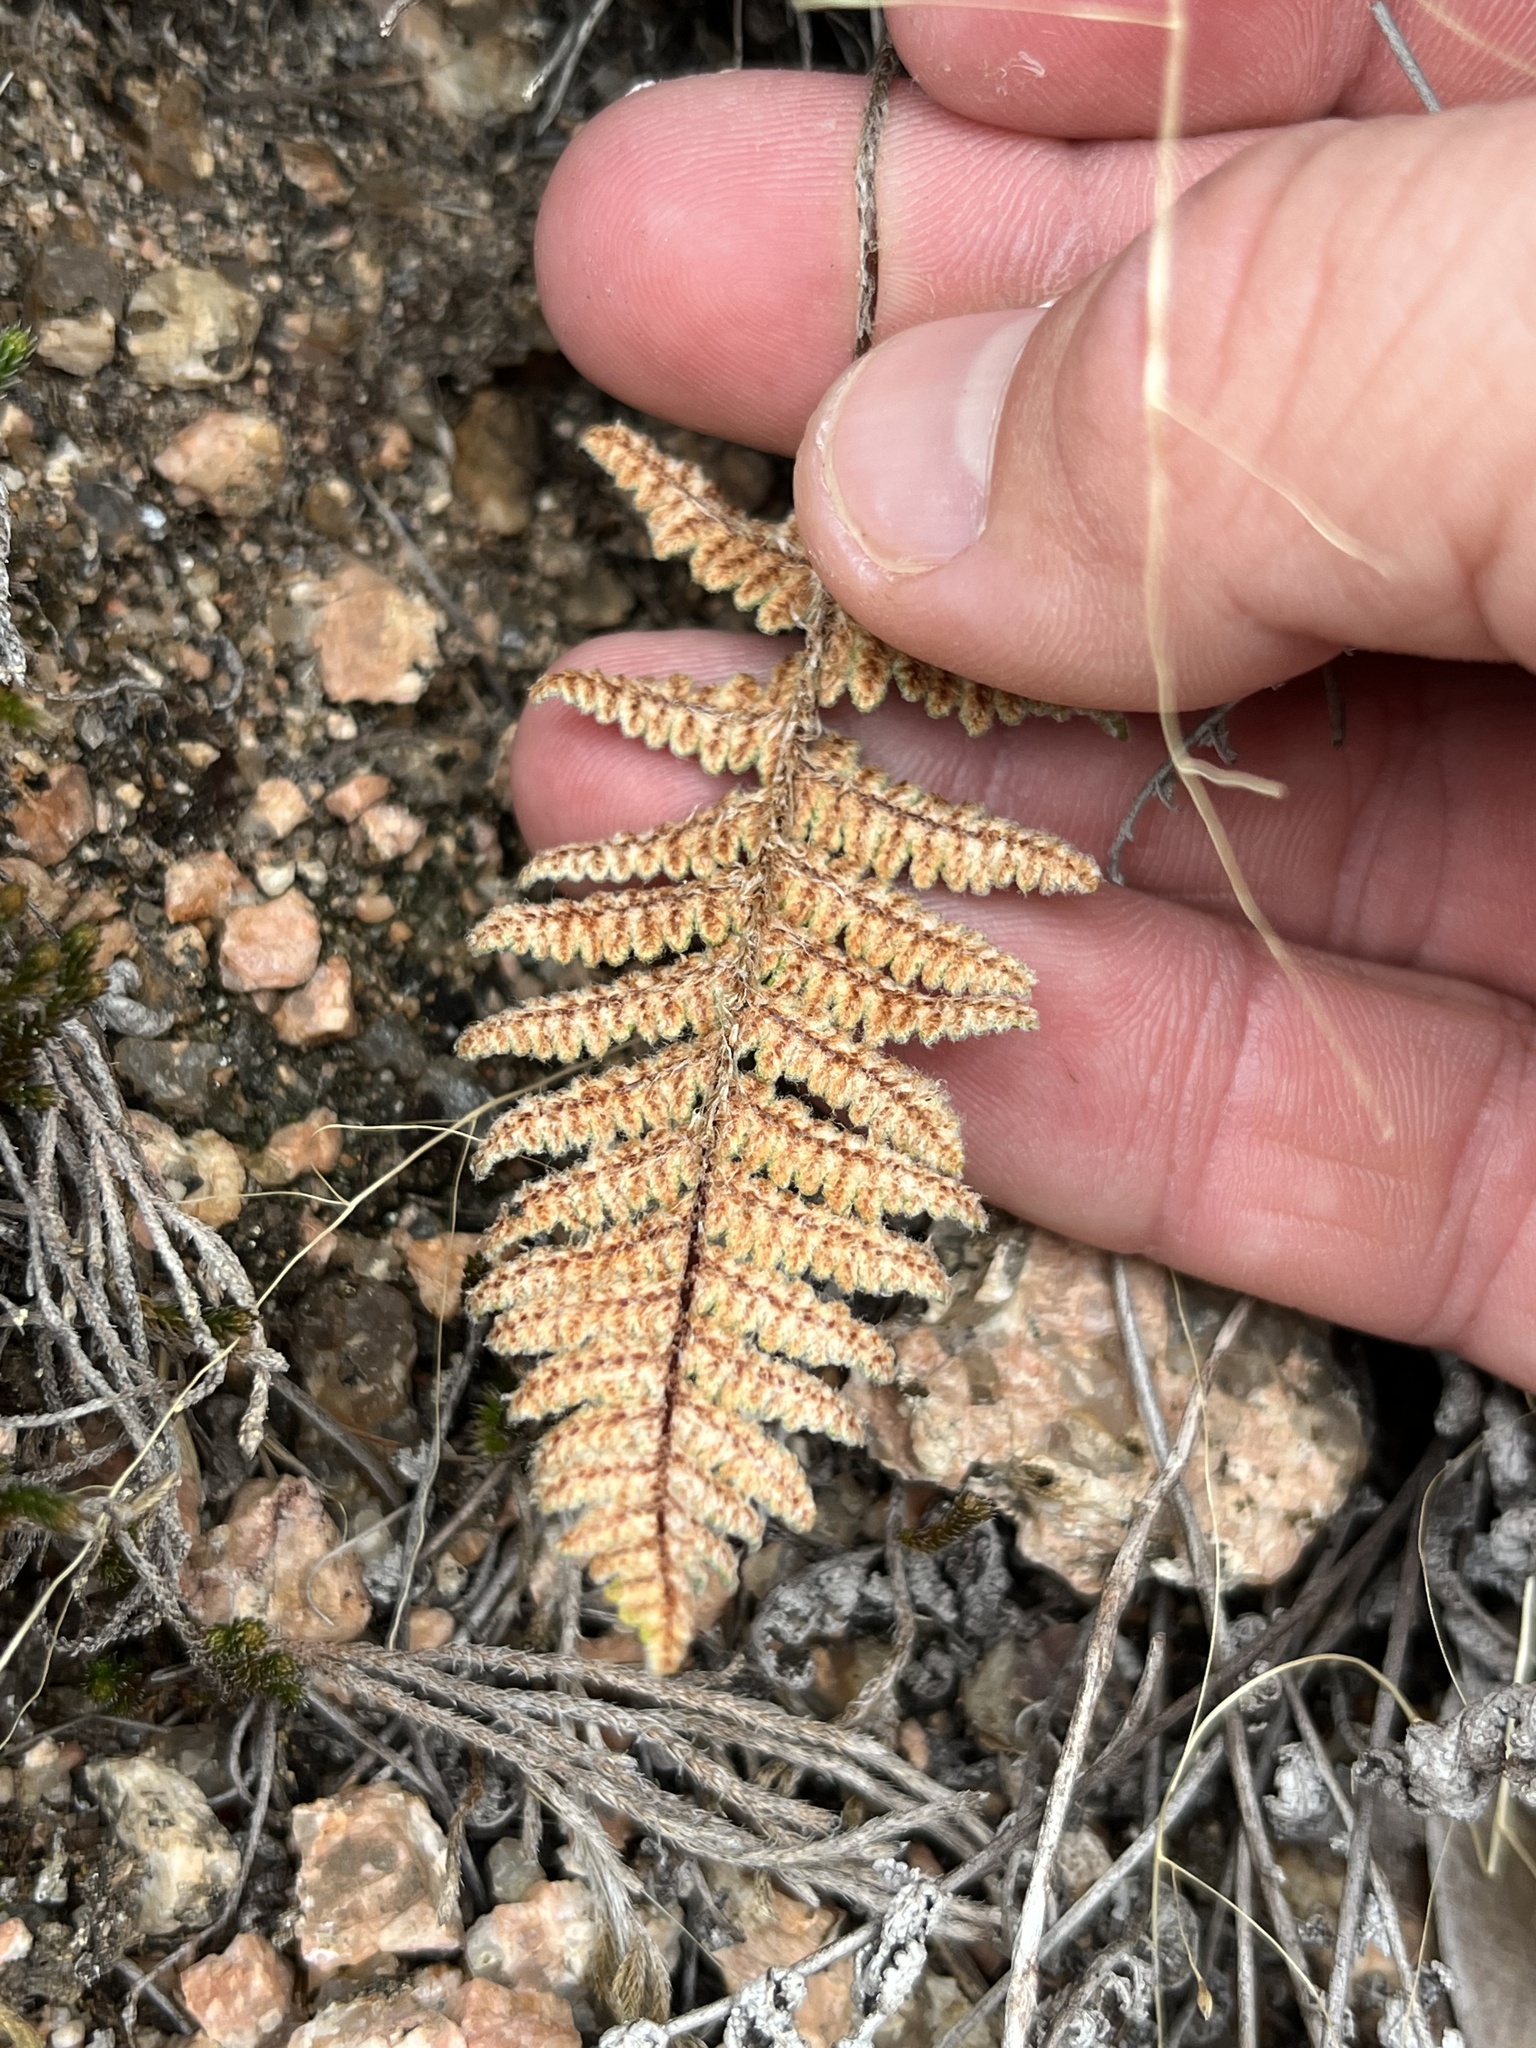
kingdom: Plantae
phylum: Tracheophyta
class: Polypodiopsida
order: Polypodiales
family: Pteridaceae
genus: Myriopteris
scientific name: Myriopteris lindheimeri
